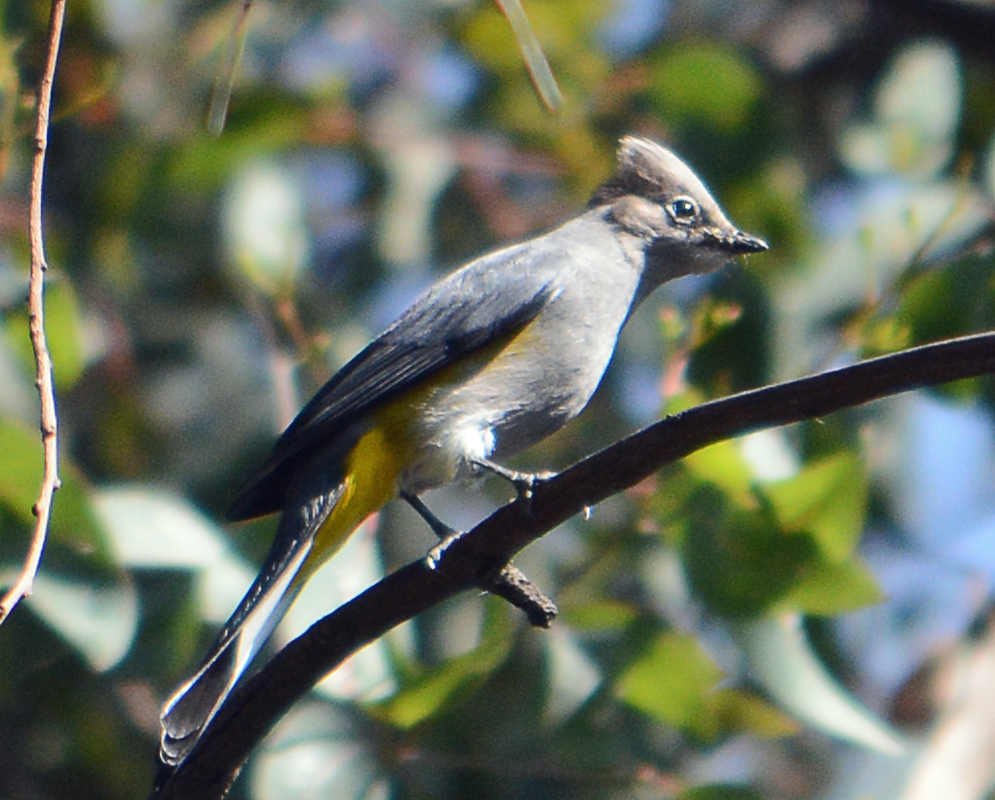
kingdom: Animalia
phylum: Chordata
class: Aves
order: Passeriformes
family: Ptilogonatidae
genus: Ptilogonys
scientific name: Ptilogonys cinereus
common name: Gray silky-flycatcher
